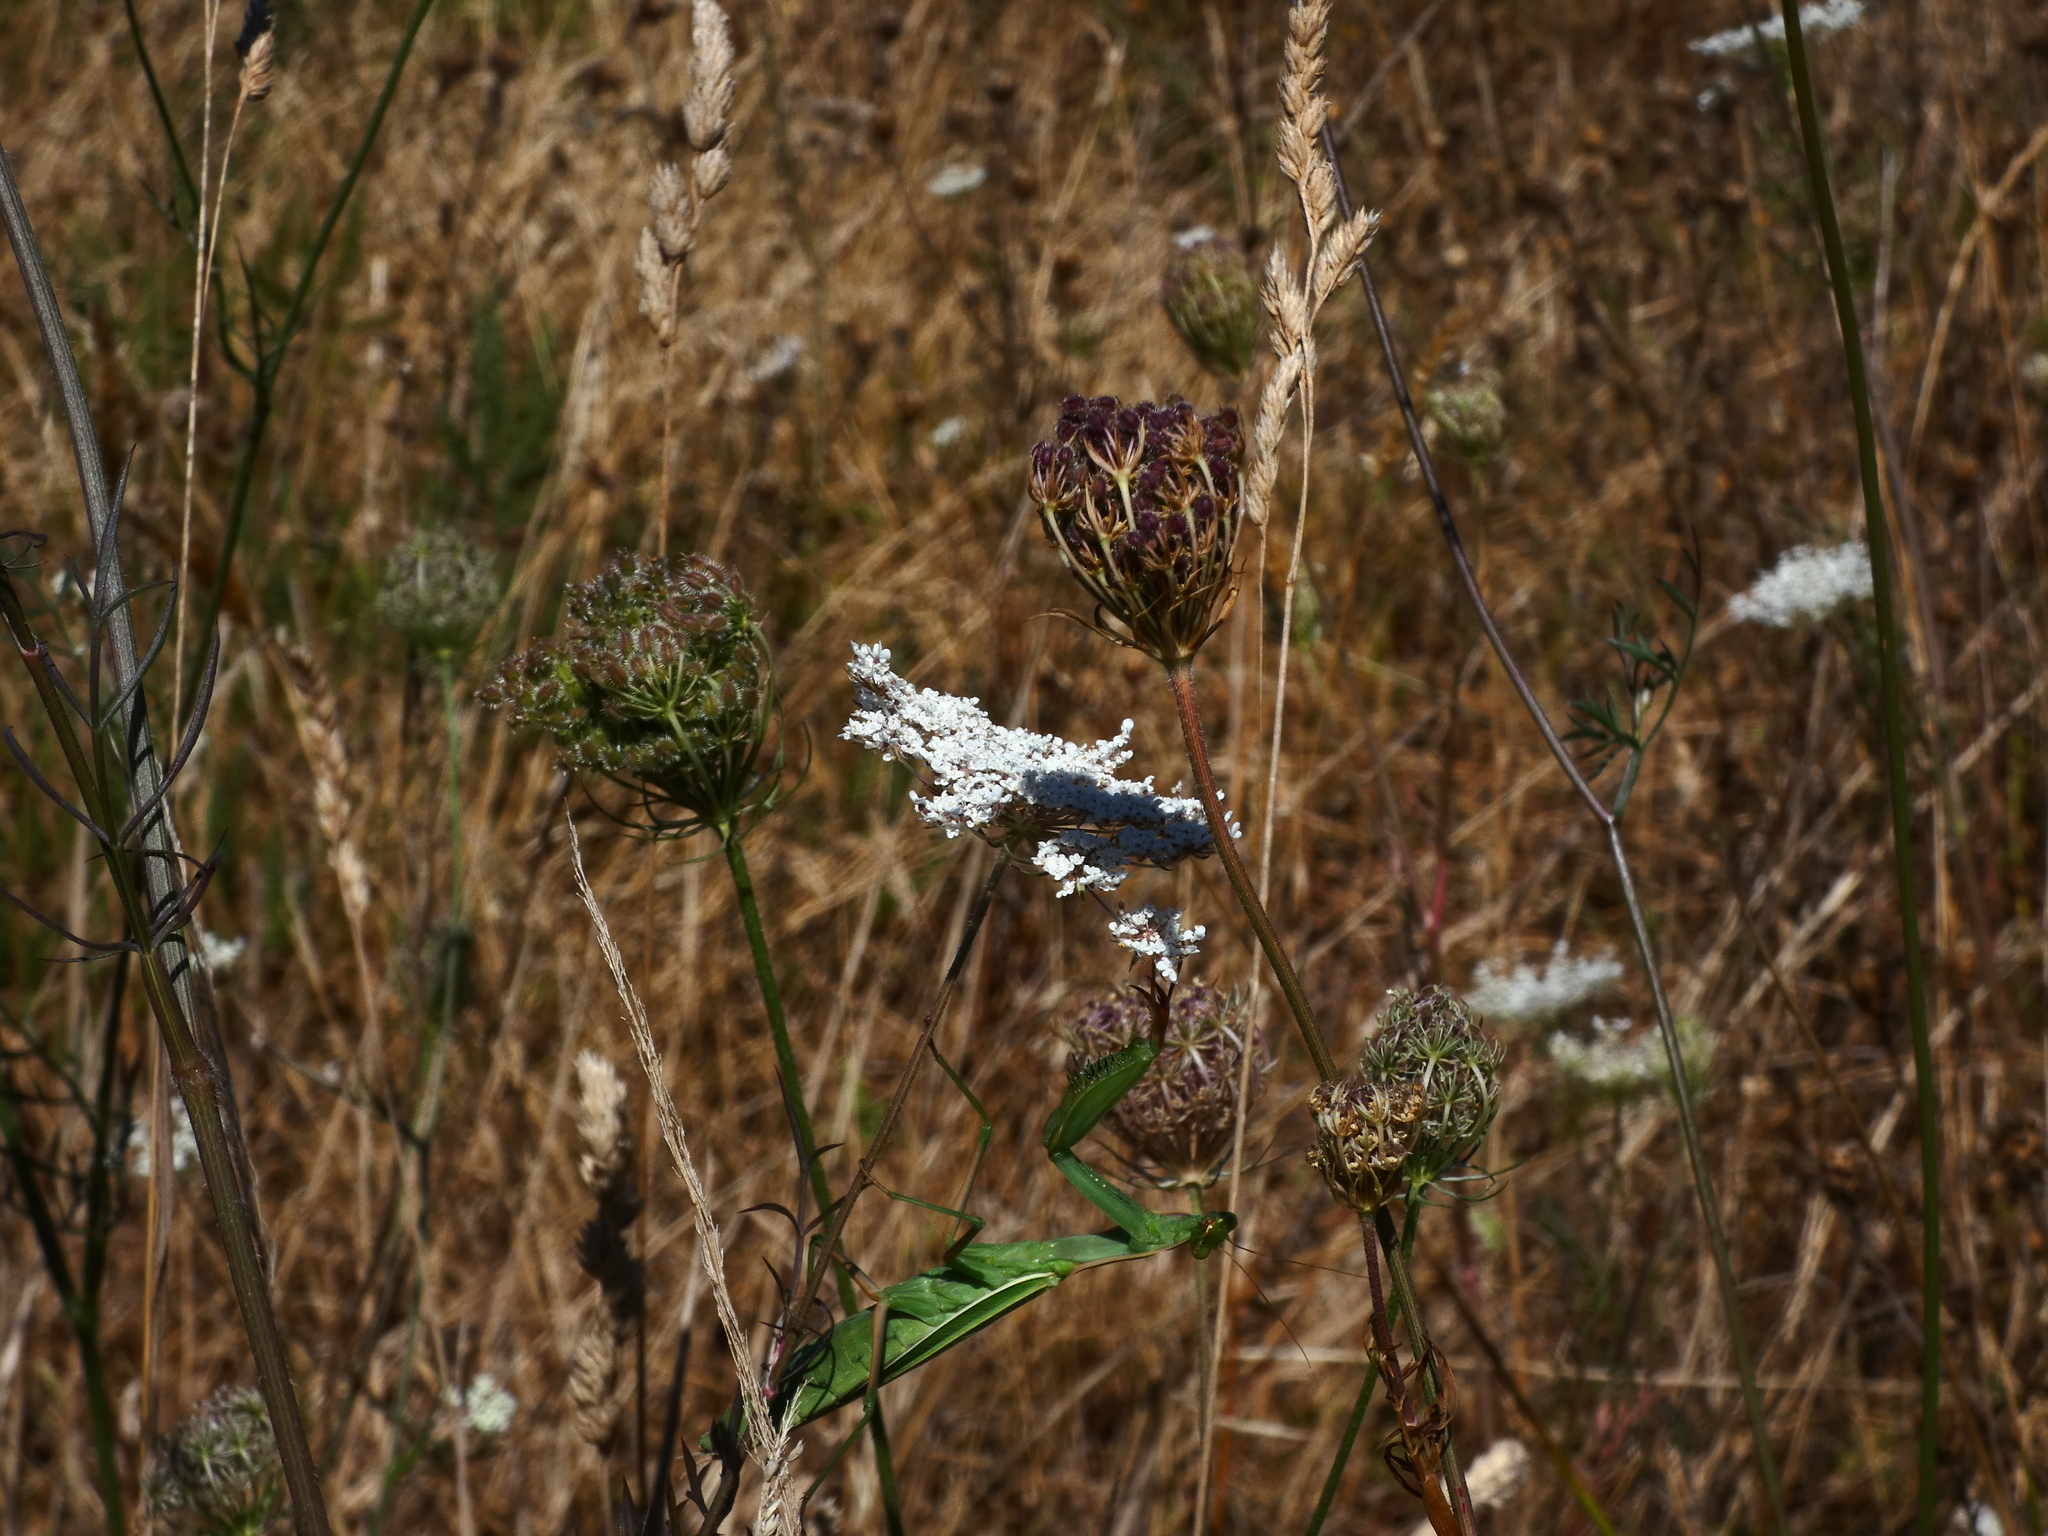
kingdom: Animalia
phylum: Arthropoda
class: Insecta
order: Mantodea
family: Mantidae
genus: Mantis
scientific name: Mantis religiosa
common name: Praying mantis
